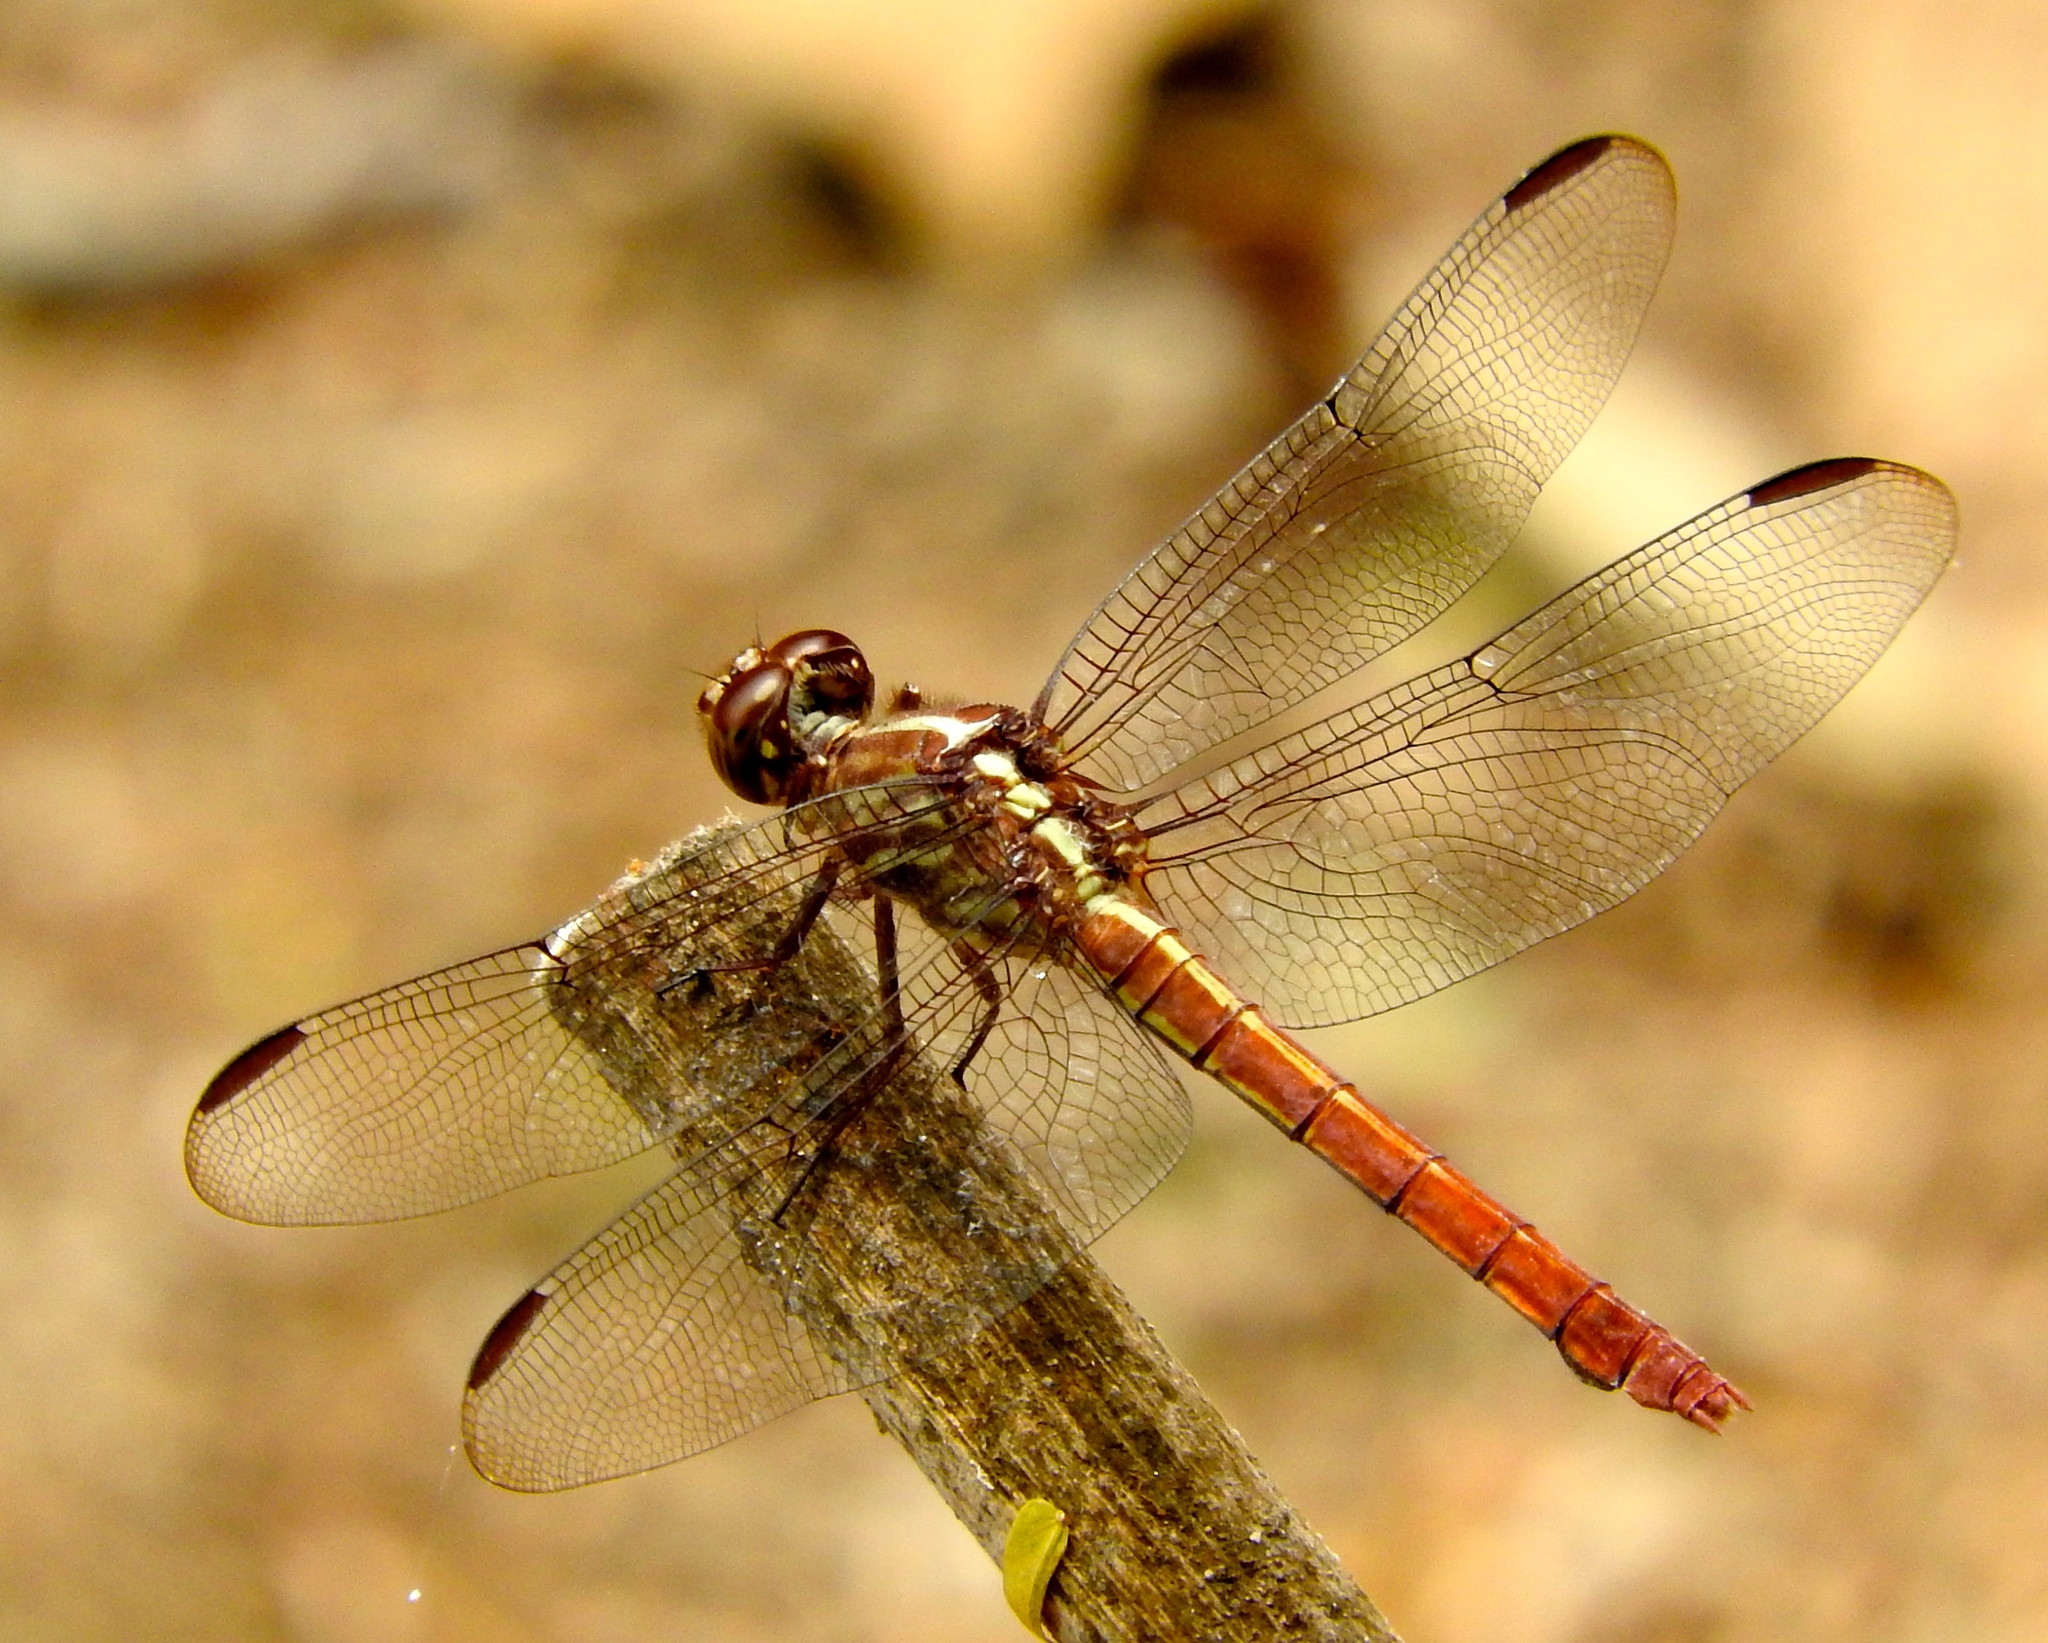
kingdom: Animalia
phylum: Arthropoda
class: Insecta
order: Odonata
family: Libellulidae
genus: Orthemis
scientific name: Orthemis
